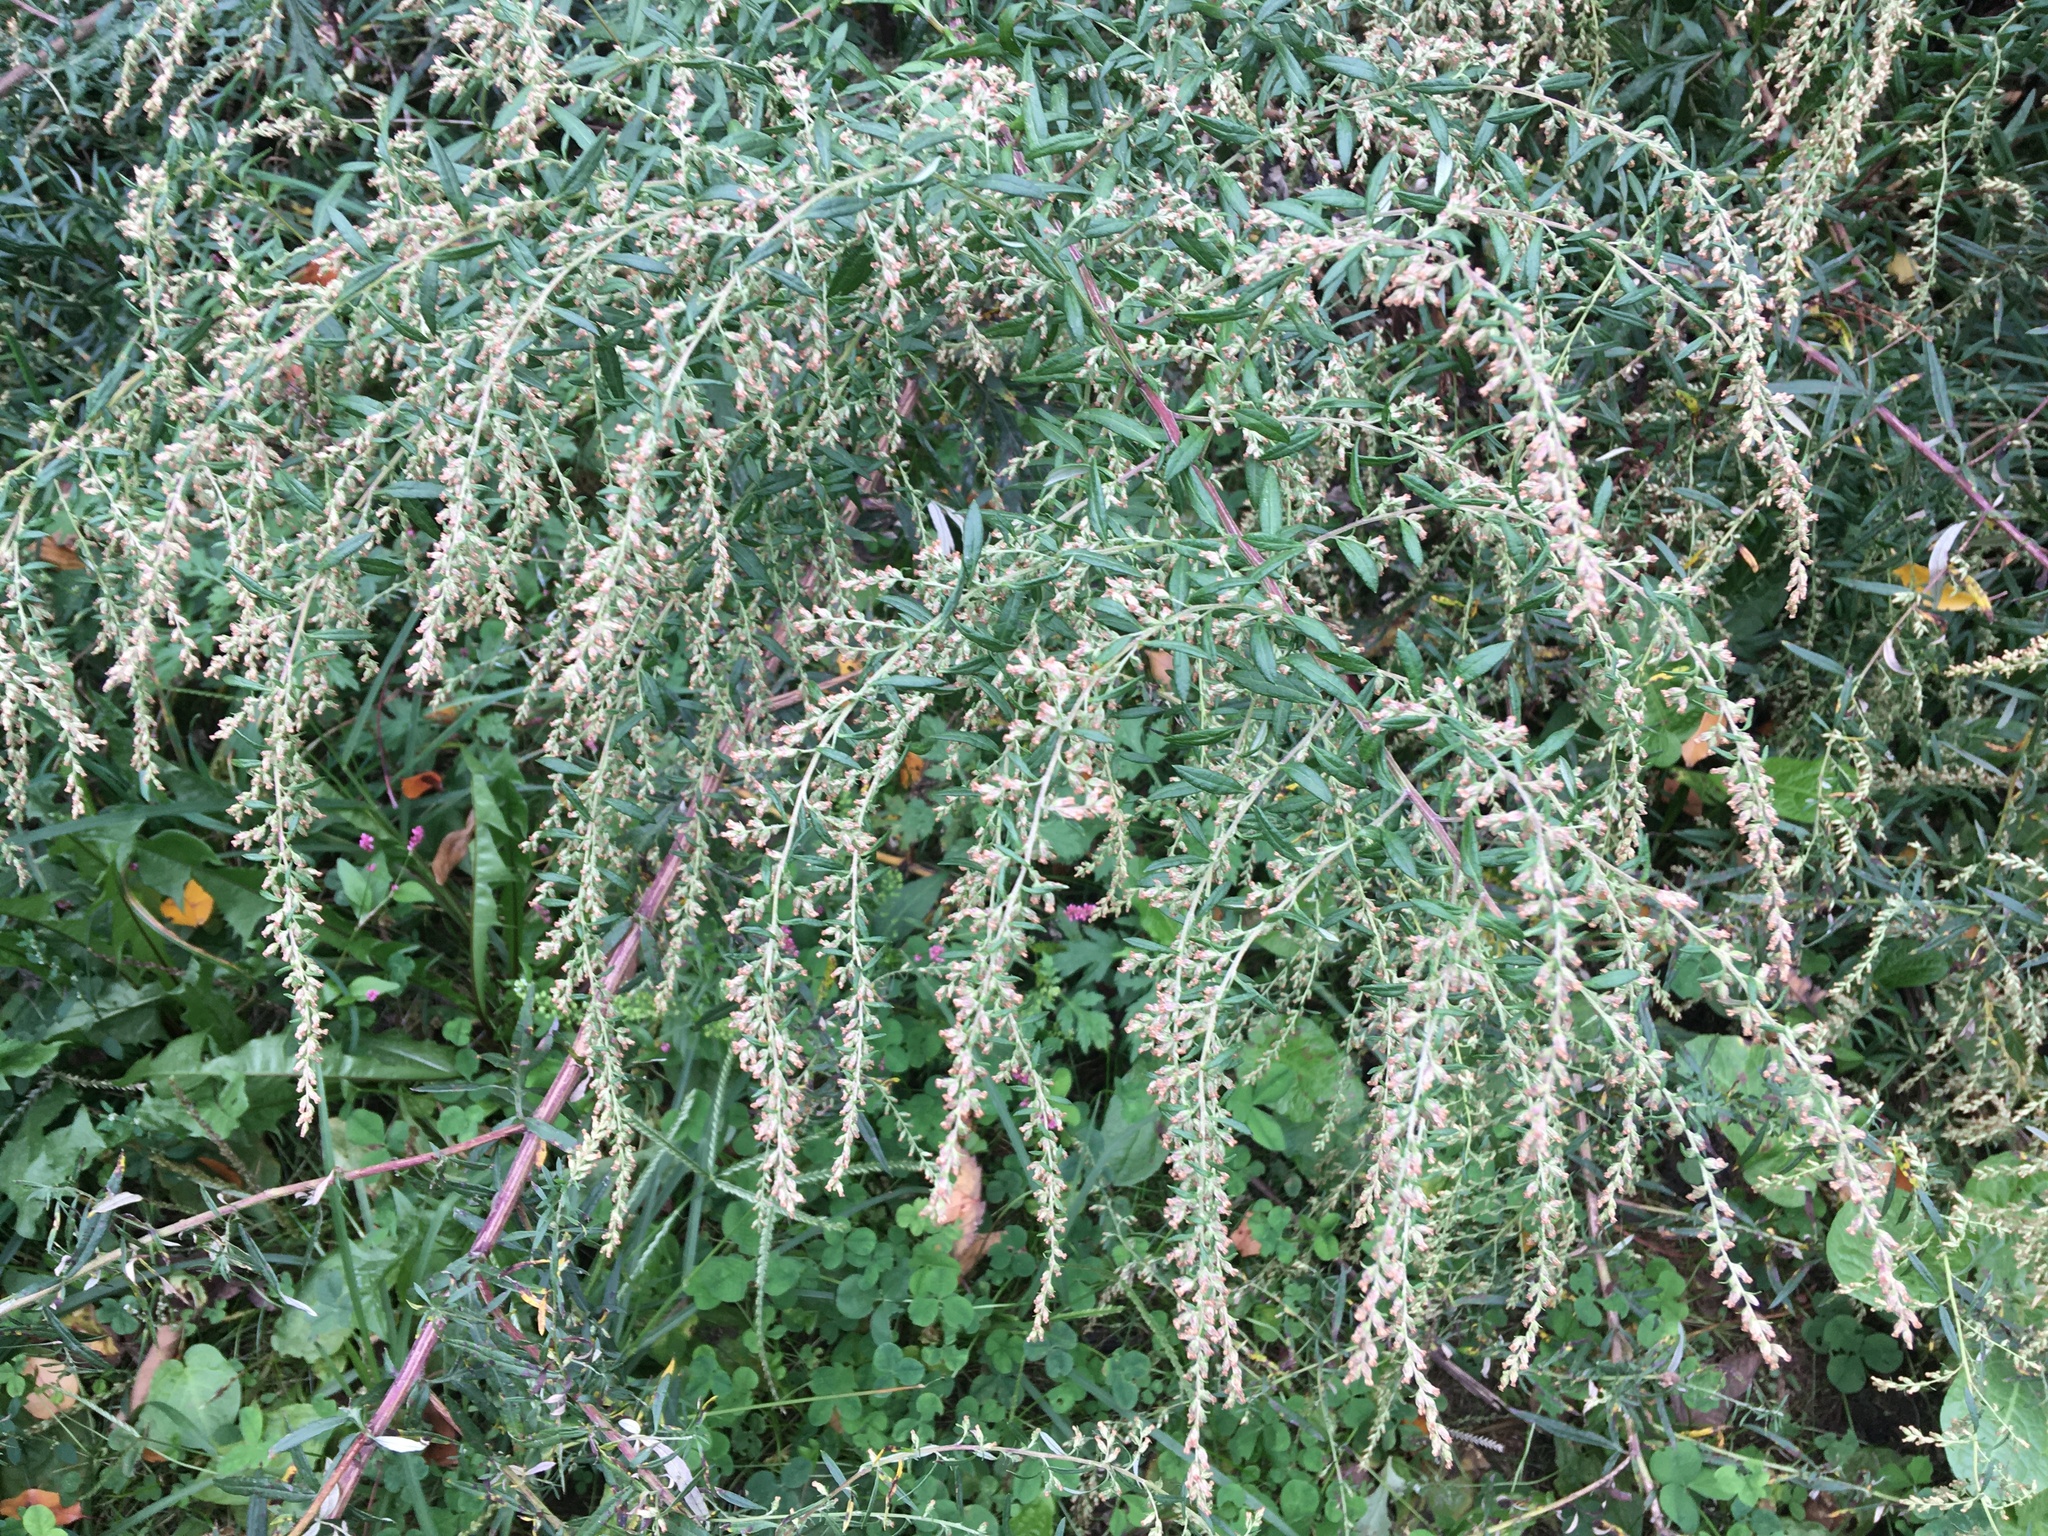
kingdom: Plantae
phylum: Tracheophyta
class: Magnoliopsida
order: Asterales
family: Asteraceae
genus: Artemisia
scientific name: Artemisia vulgaris
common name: Mugwort
